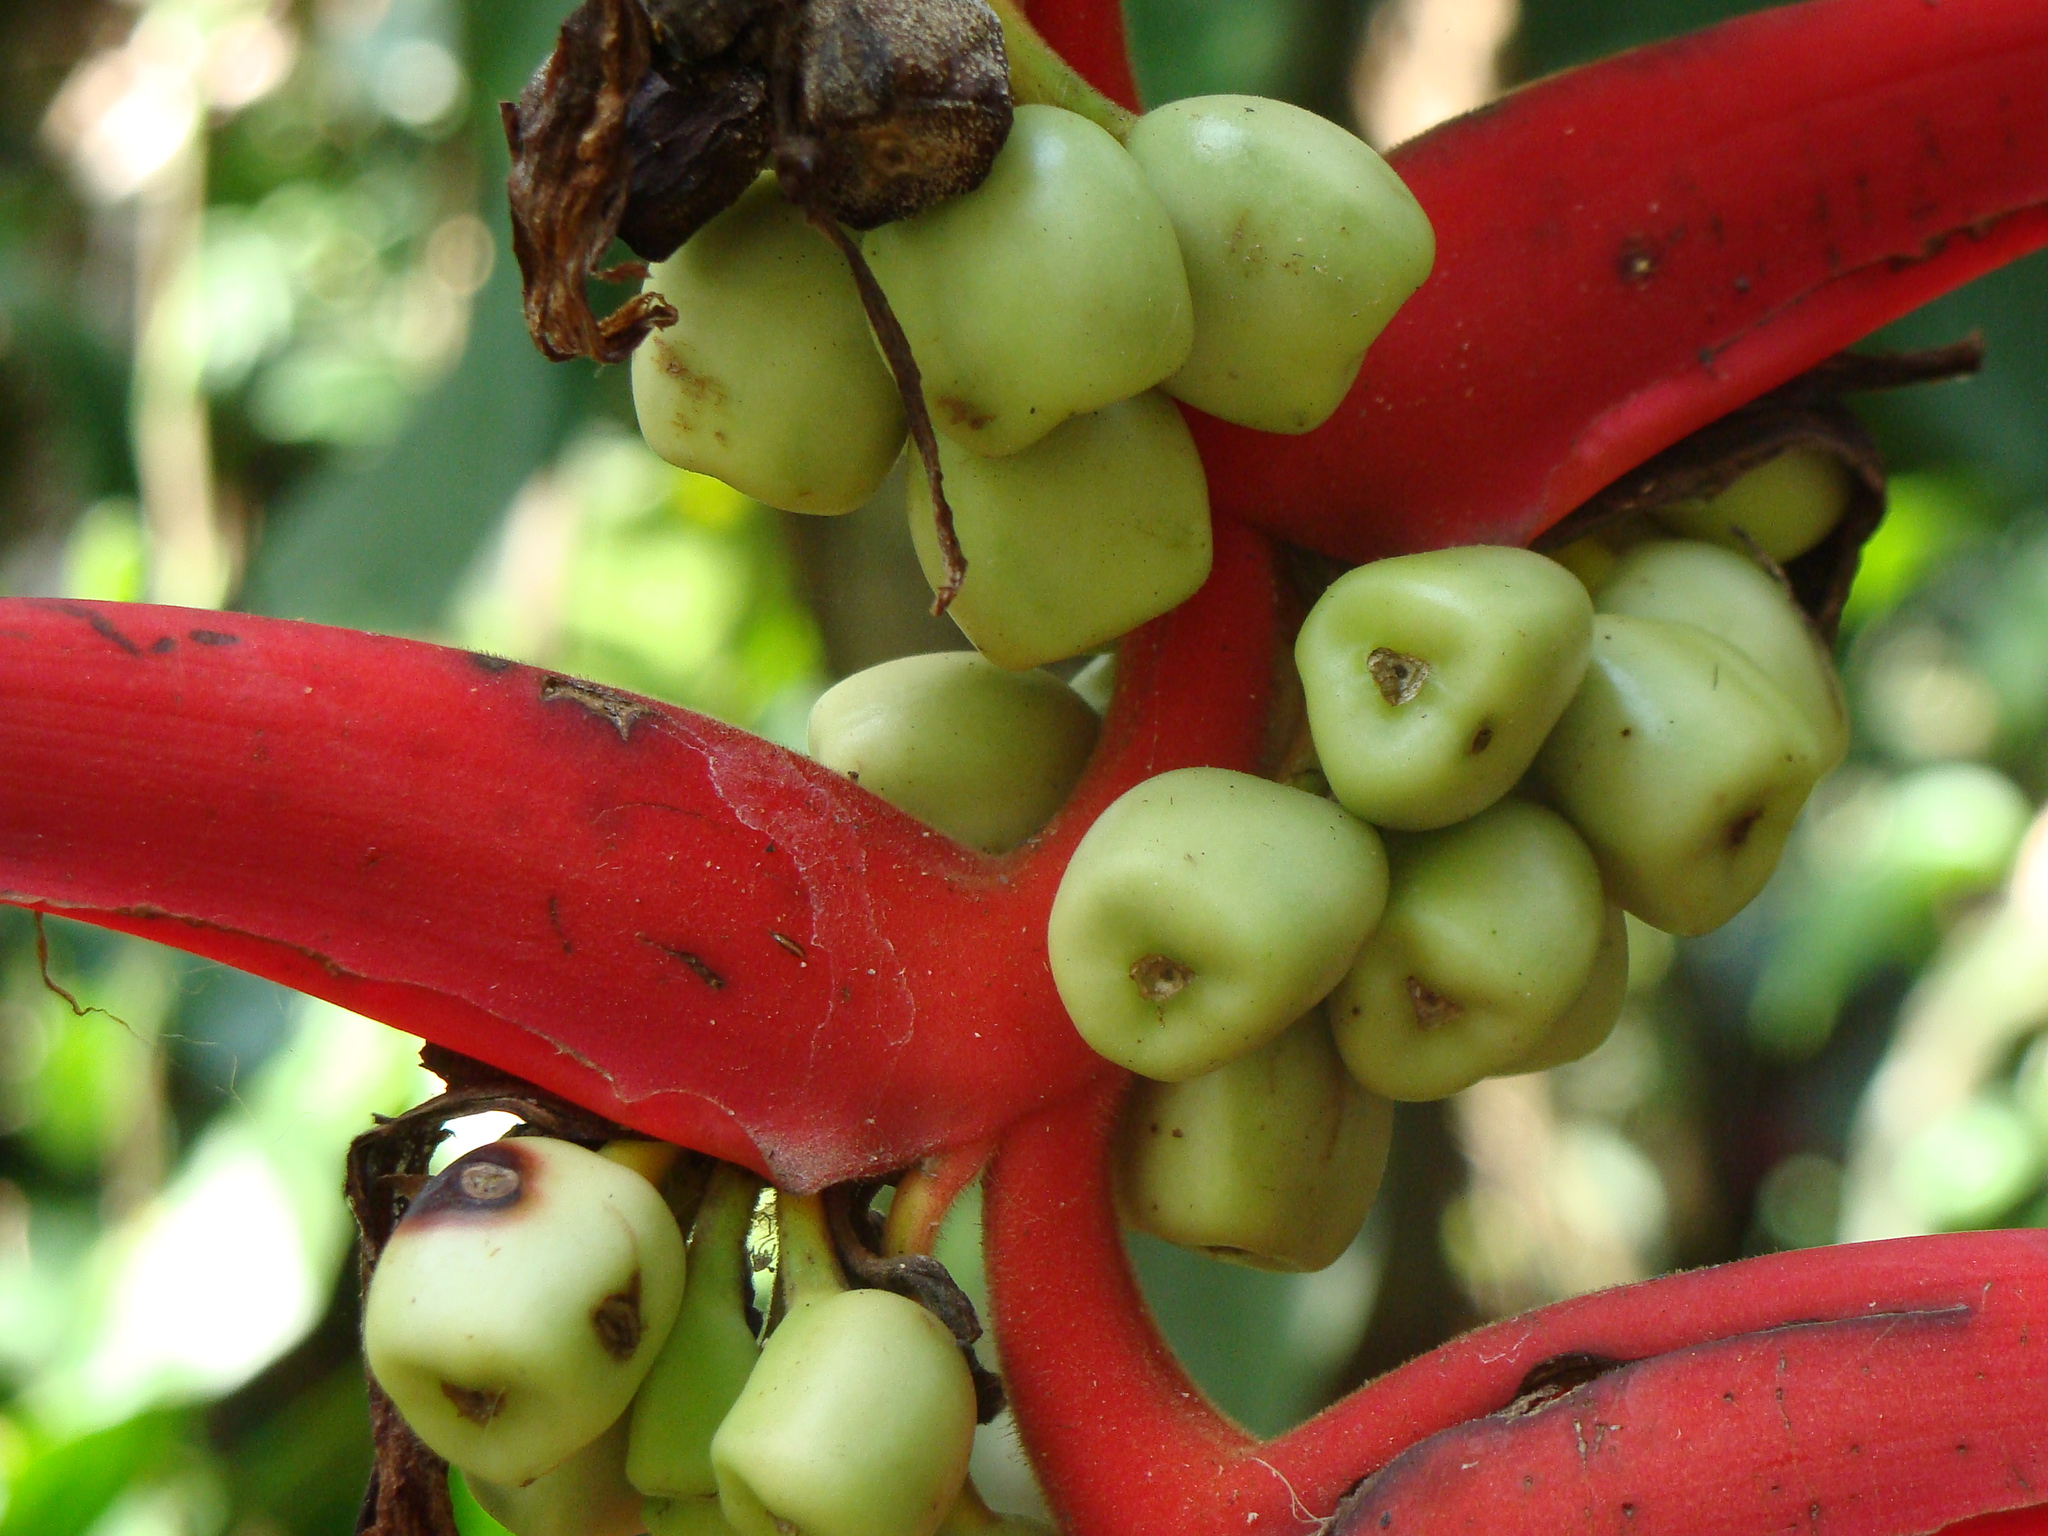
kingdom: Plantae
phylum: Tracheophyta
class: Liliopsida
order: Zingiberales
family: Heliconiaceae
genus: Heliconia
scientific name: Heliconia collinsiana
